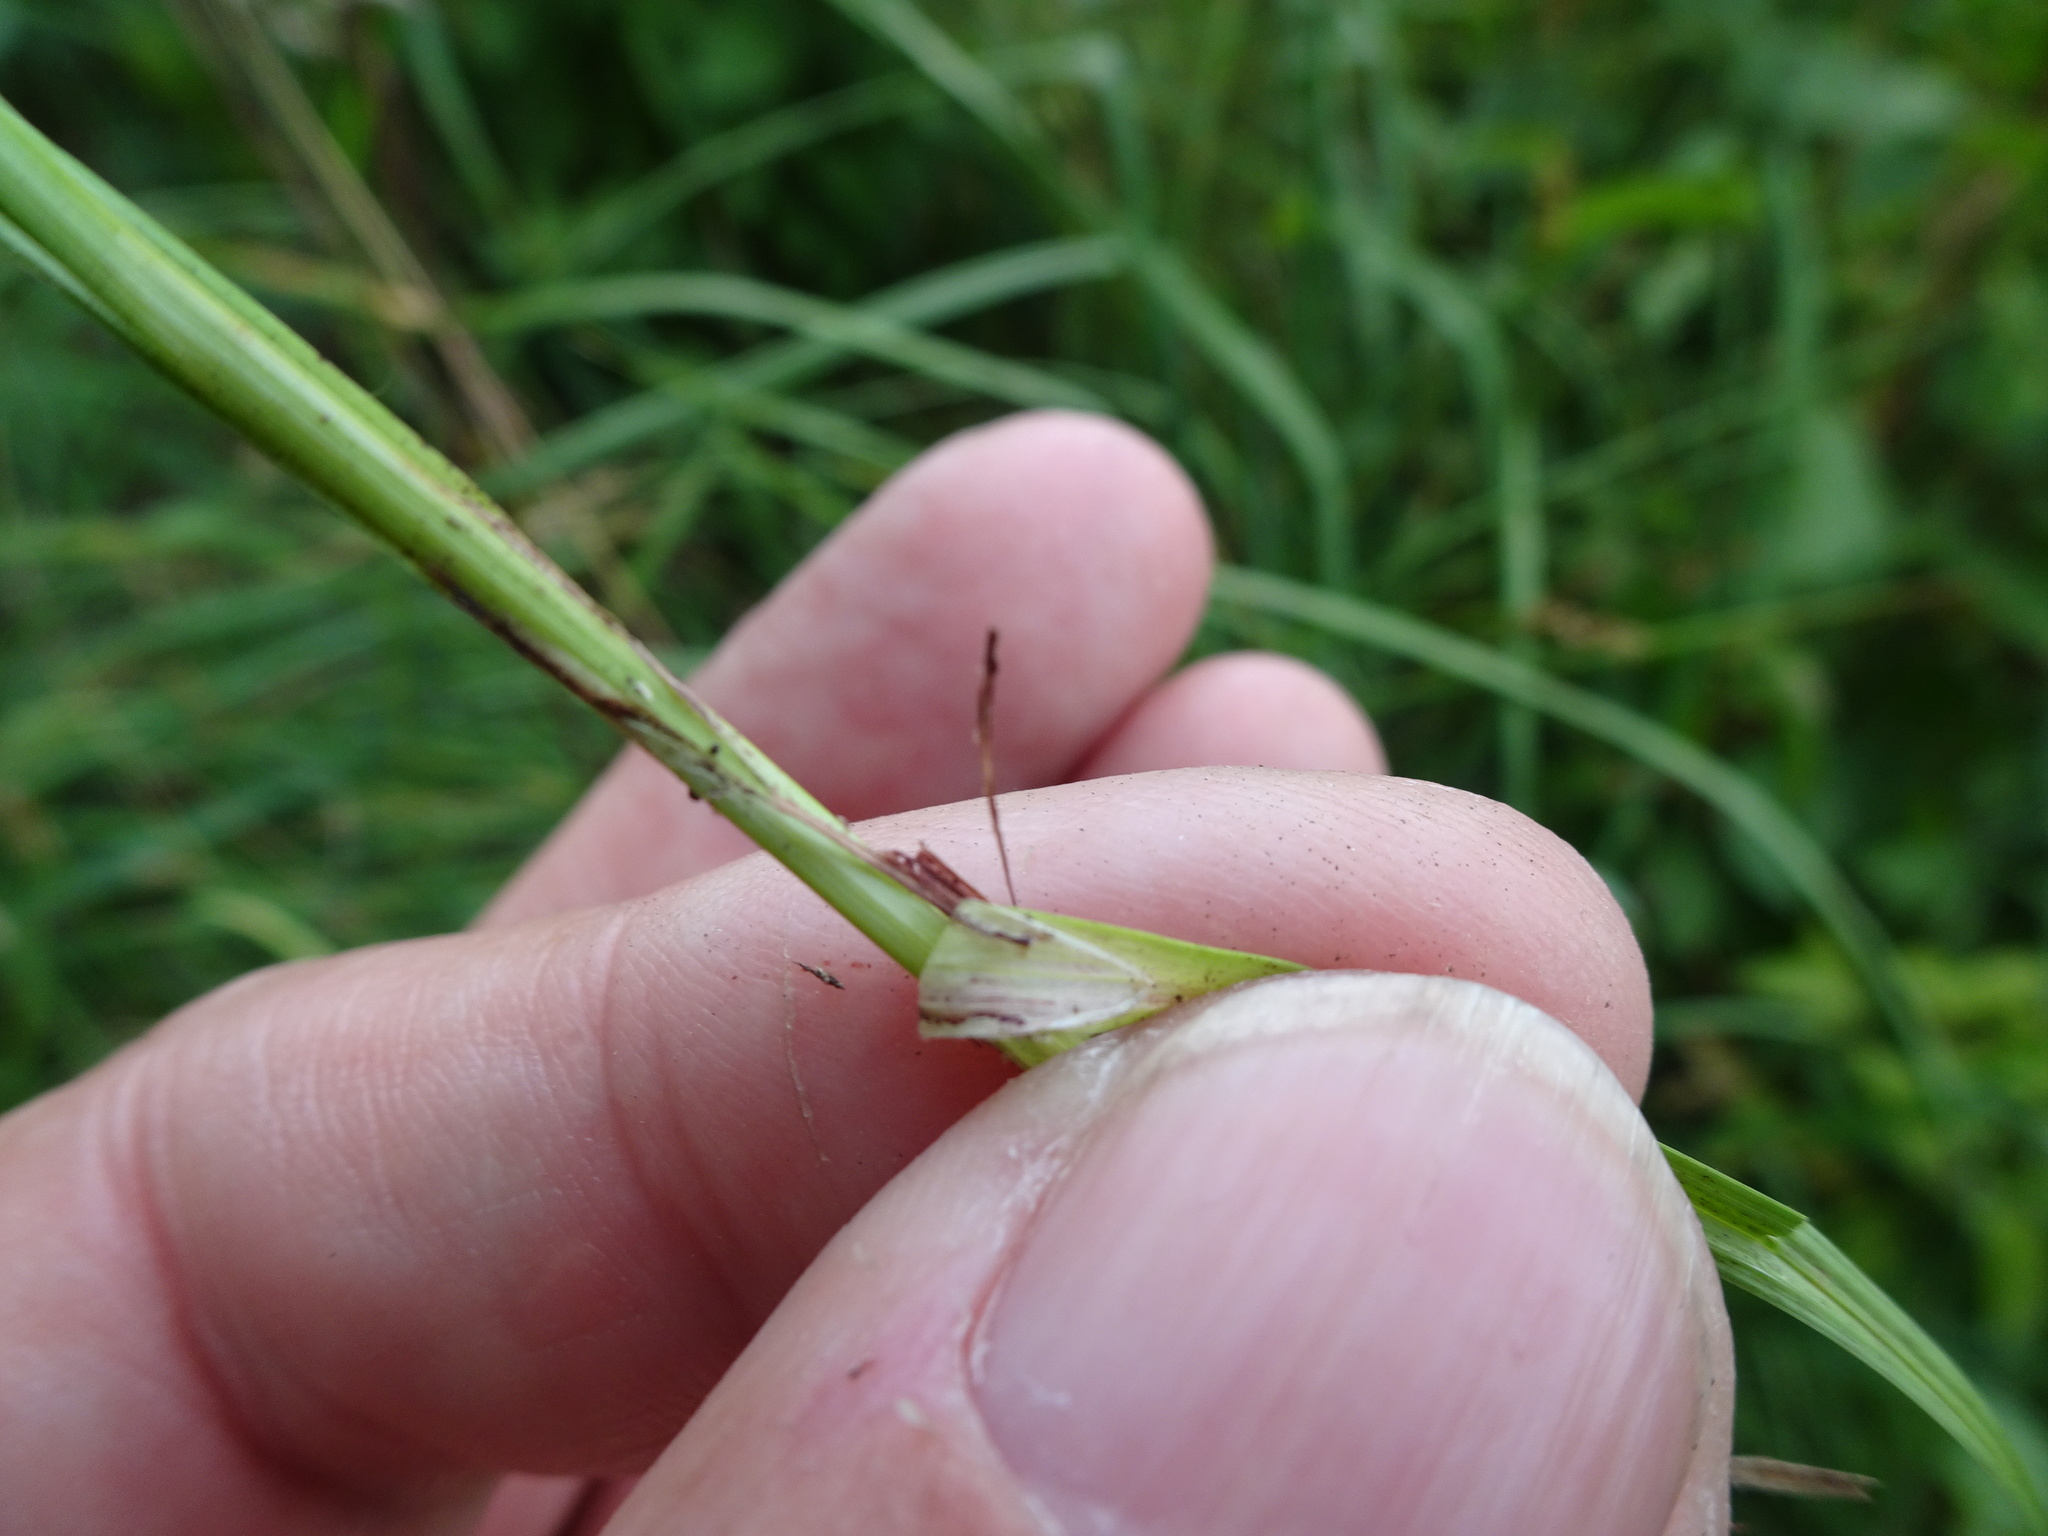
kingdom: Plantae
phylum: Tracheophyta
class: Liliopsida
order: Poales
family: Cyperaceae
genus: Carex
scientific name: Carex spicata
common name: Spiked sedge
